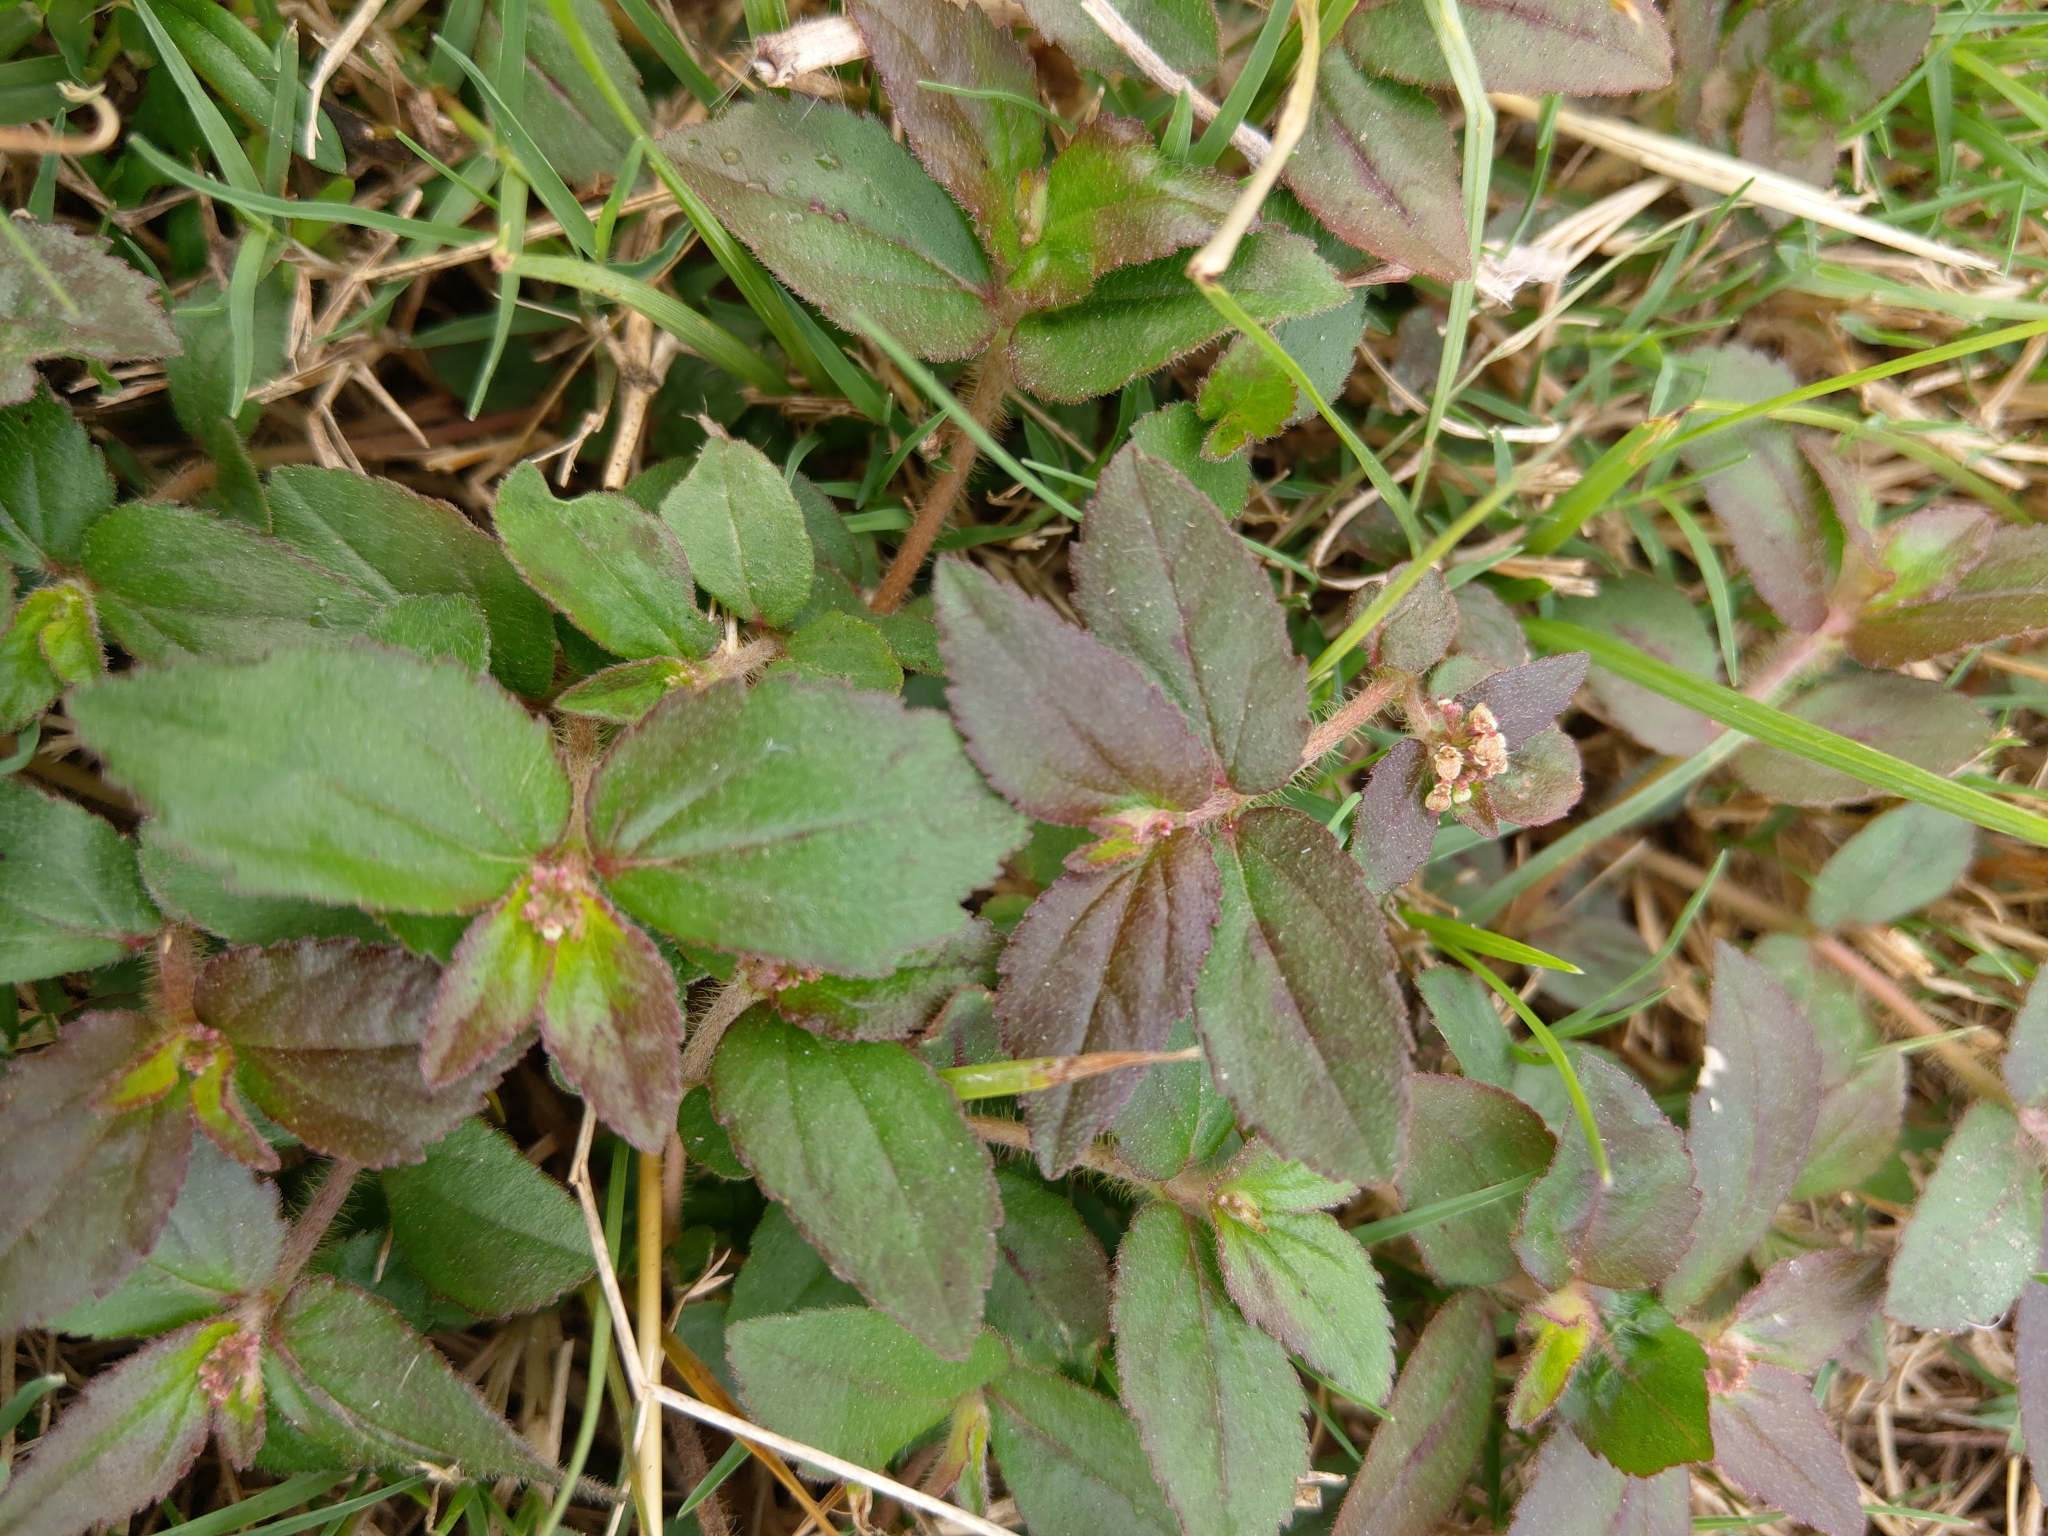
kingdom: Plantae
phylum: Tracheophyta
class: Magnoliopsida
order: Malpighiales
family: Euphorbiaceae
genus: Euphorbia
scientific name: Euphorbia hirta
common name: Pillpod sandmat
